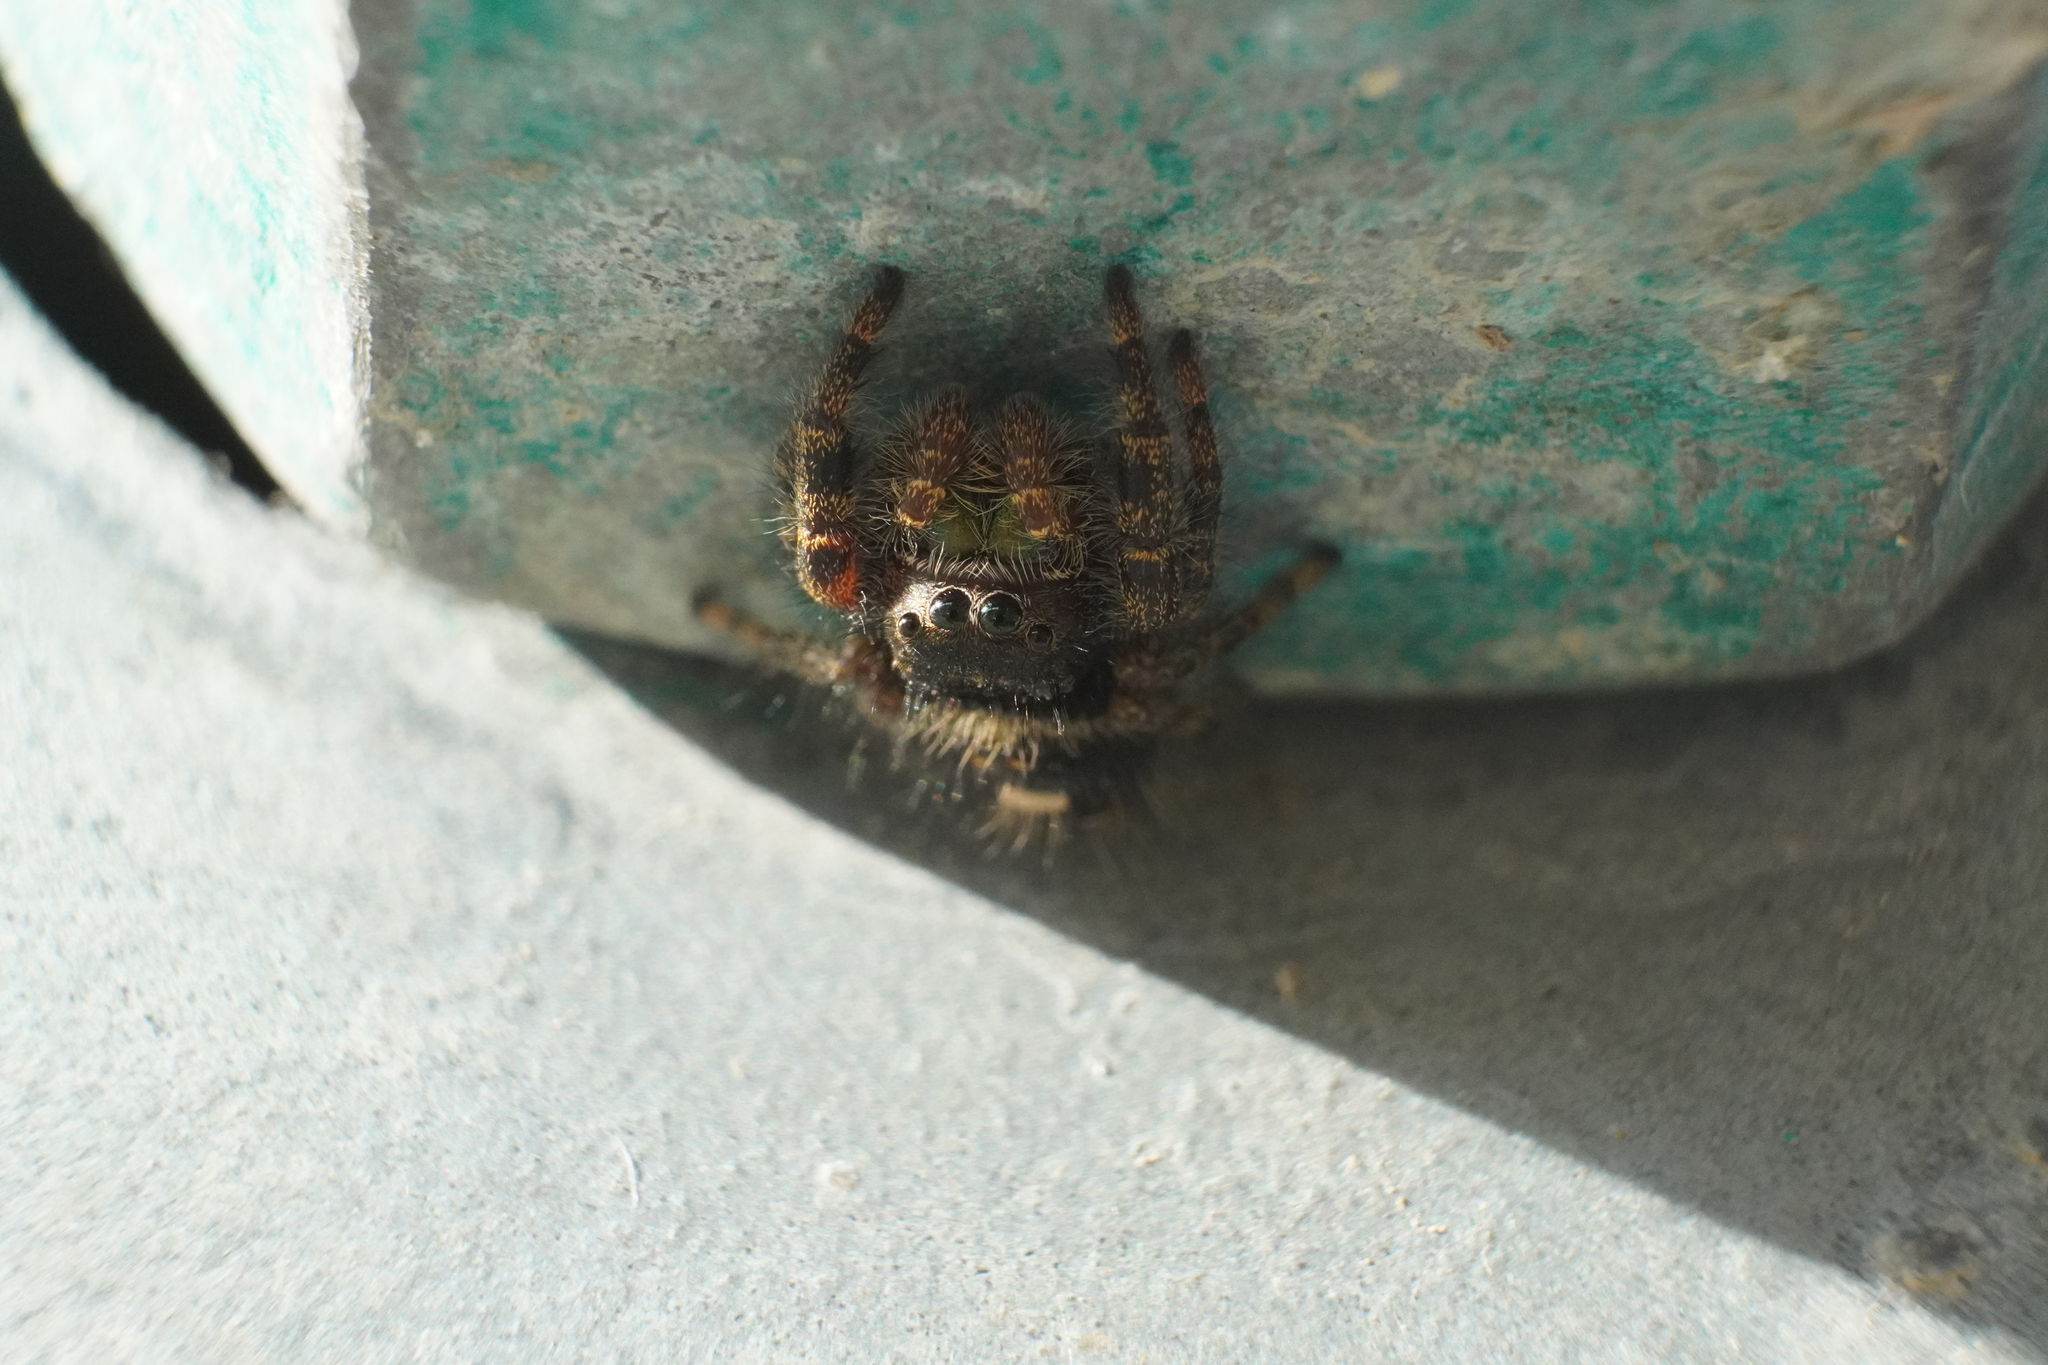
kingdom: Animalia
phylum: Arthropoda
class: Arachnida
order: Araneae
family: Salticidae
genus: Phidippus
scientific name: Phidippus audax
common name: Bold jumper
